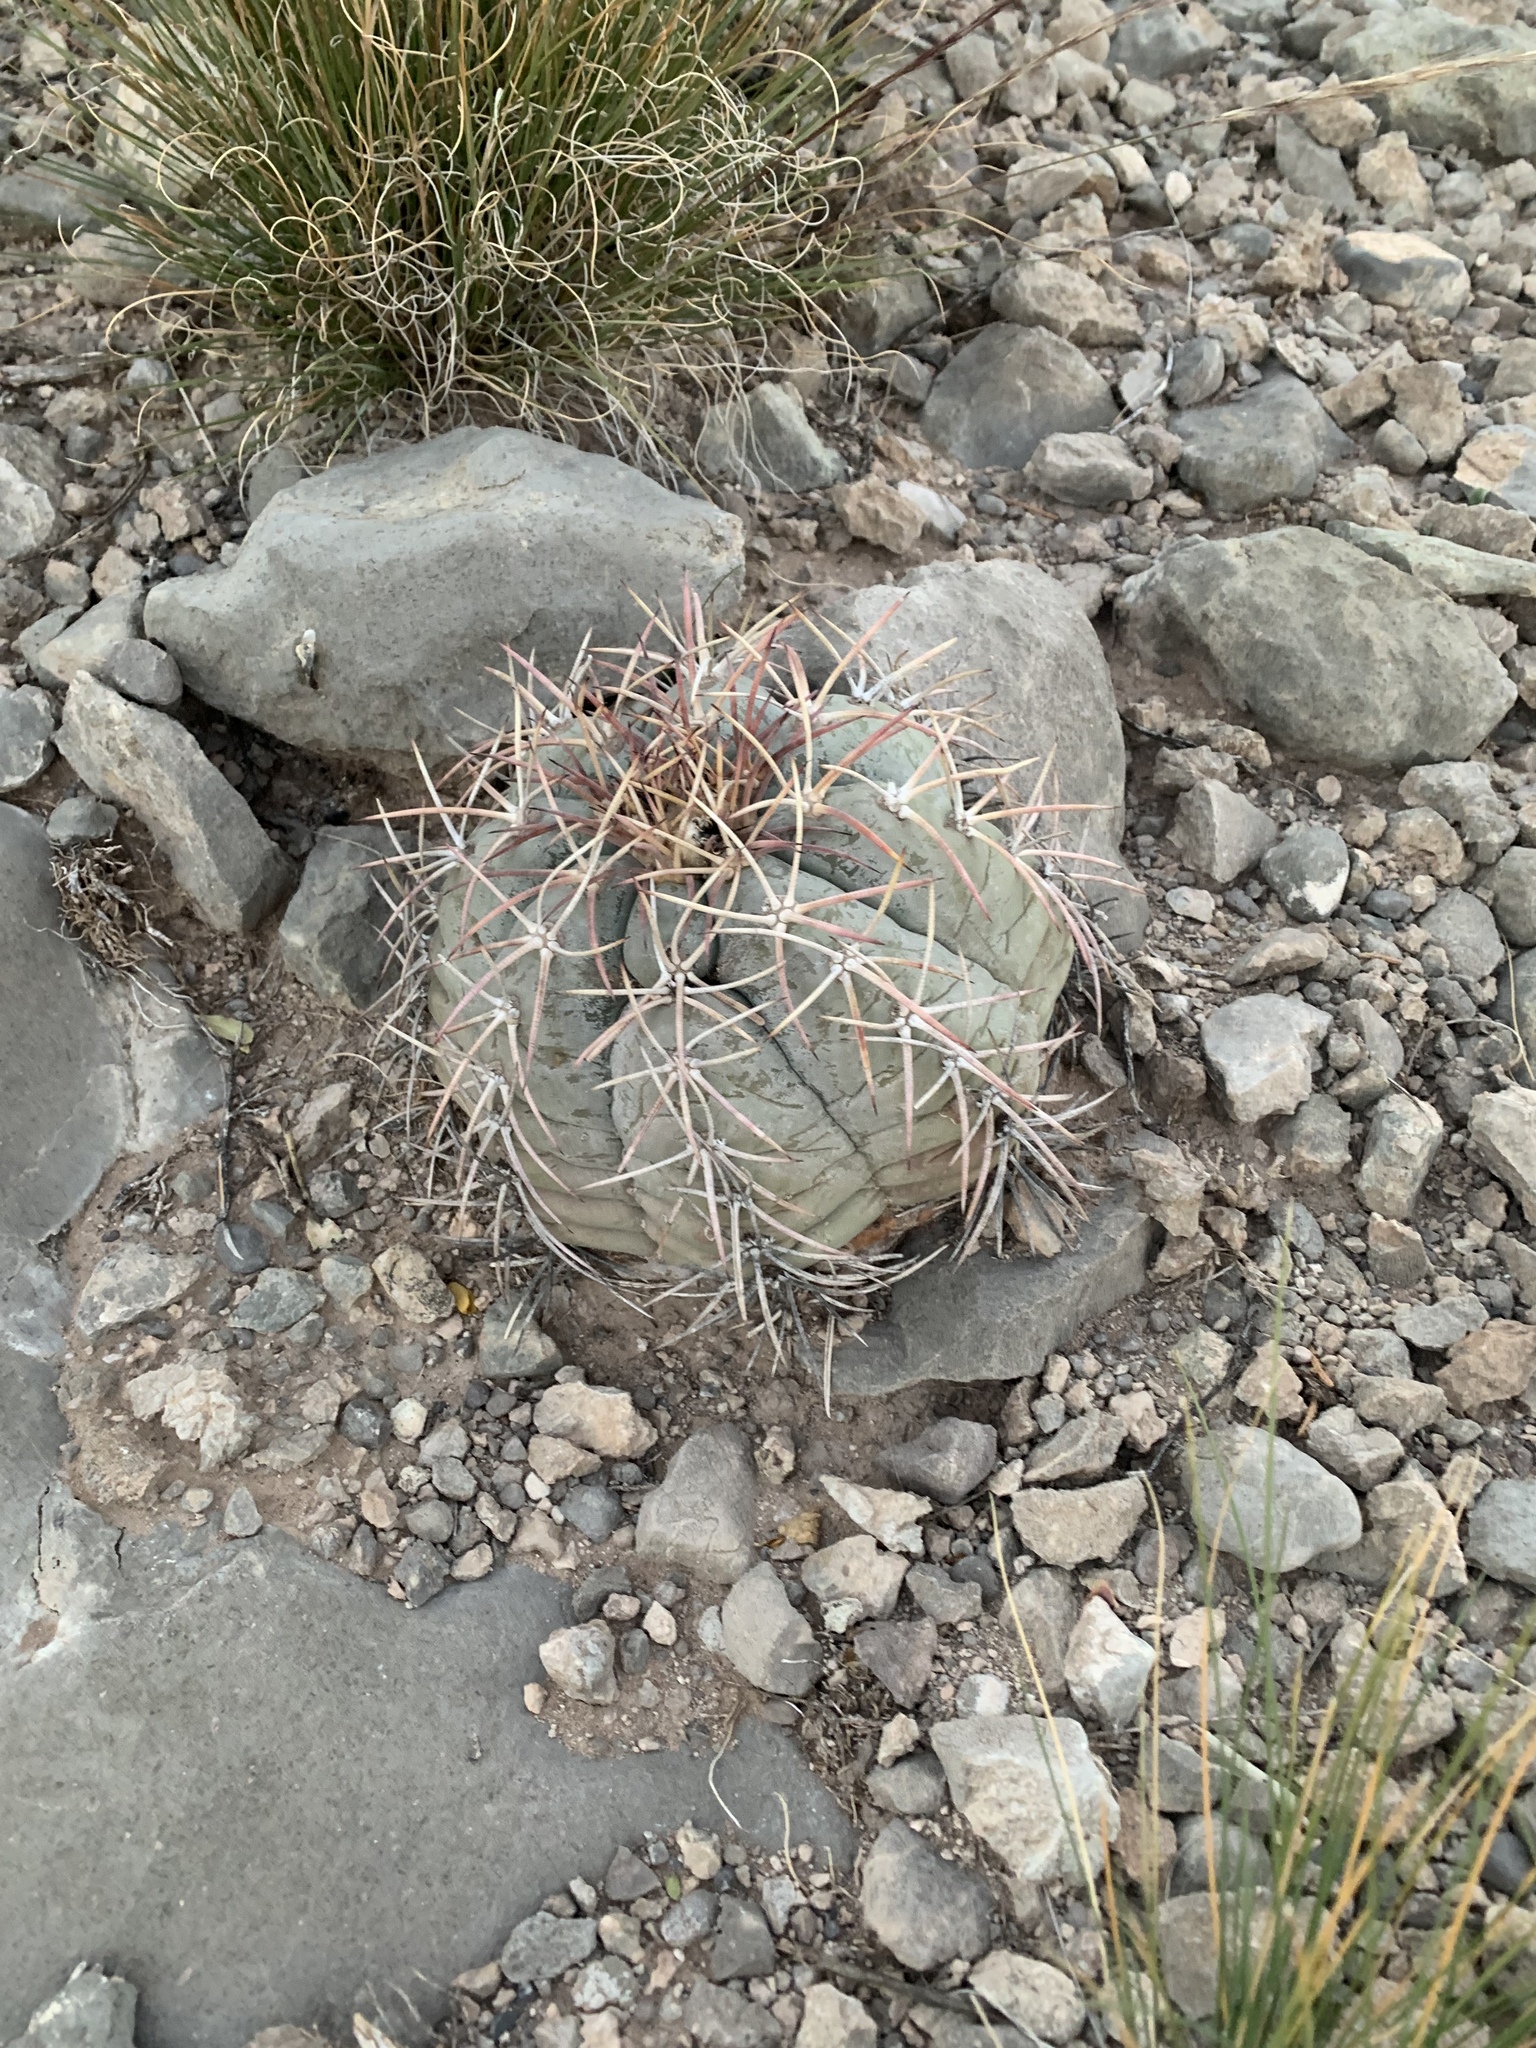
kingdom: Plantae
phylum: Tracheophyta
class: Magnoliopsida
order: Caryophyllales
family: Cactaceae
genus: Echinocactus
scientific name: Echinocactus horizonthalonius
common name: Devilshead
